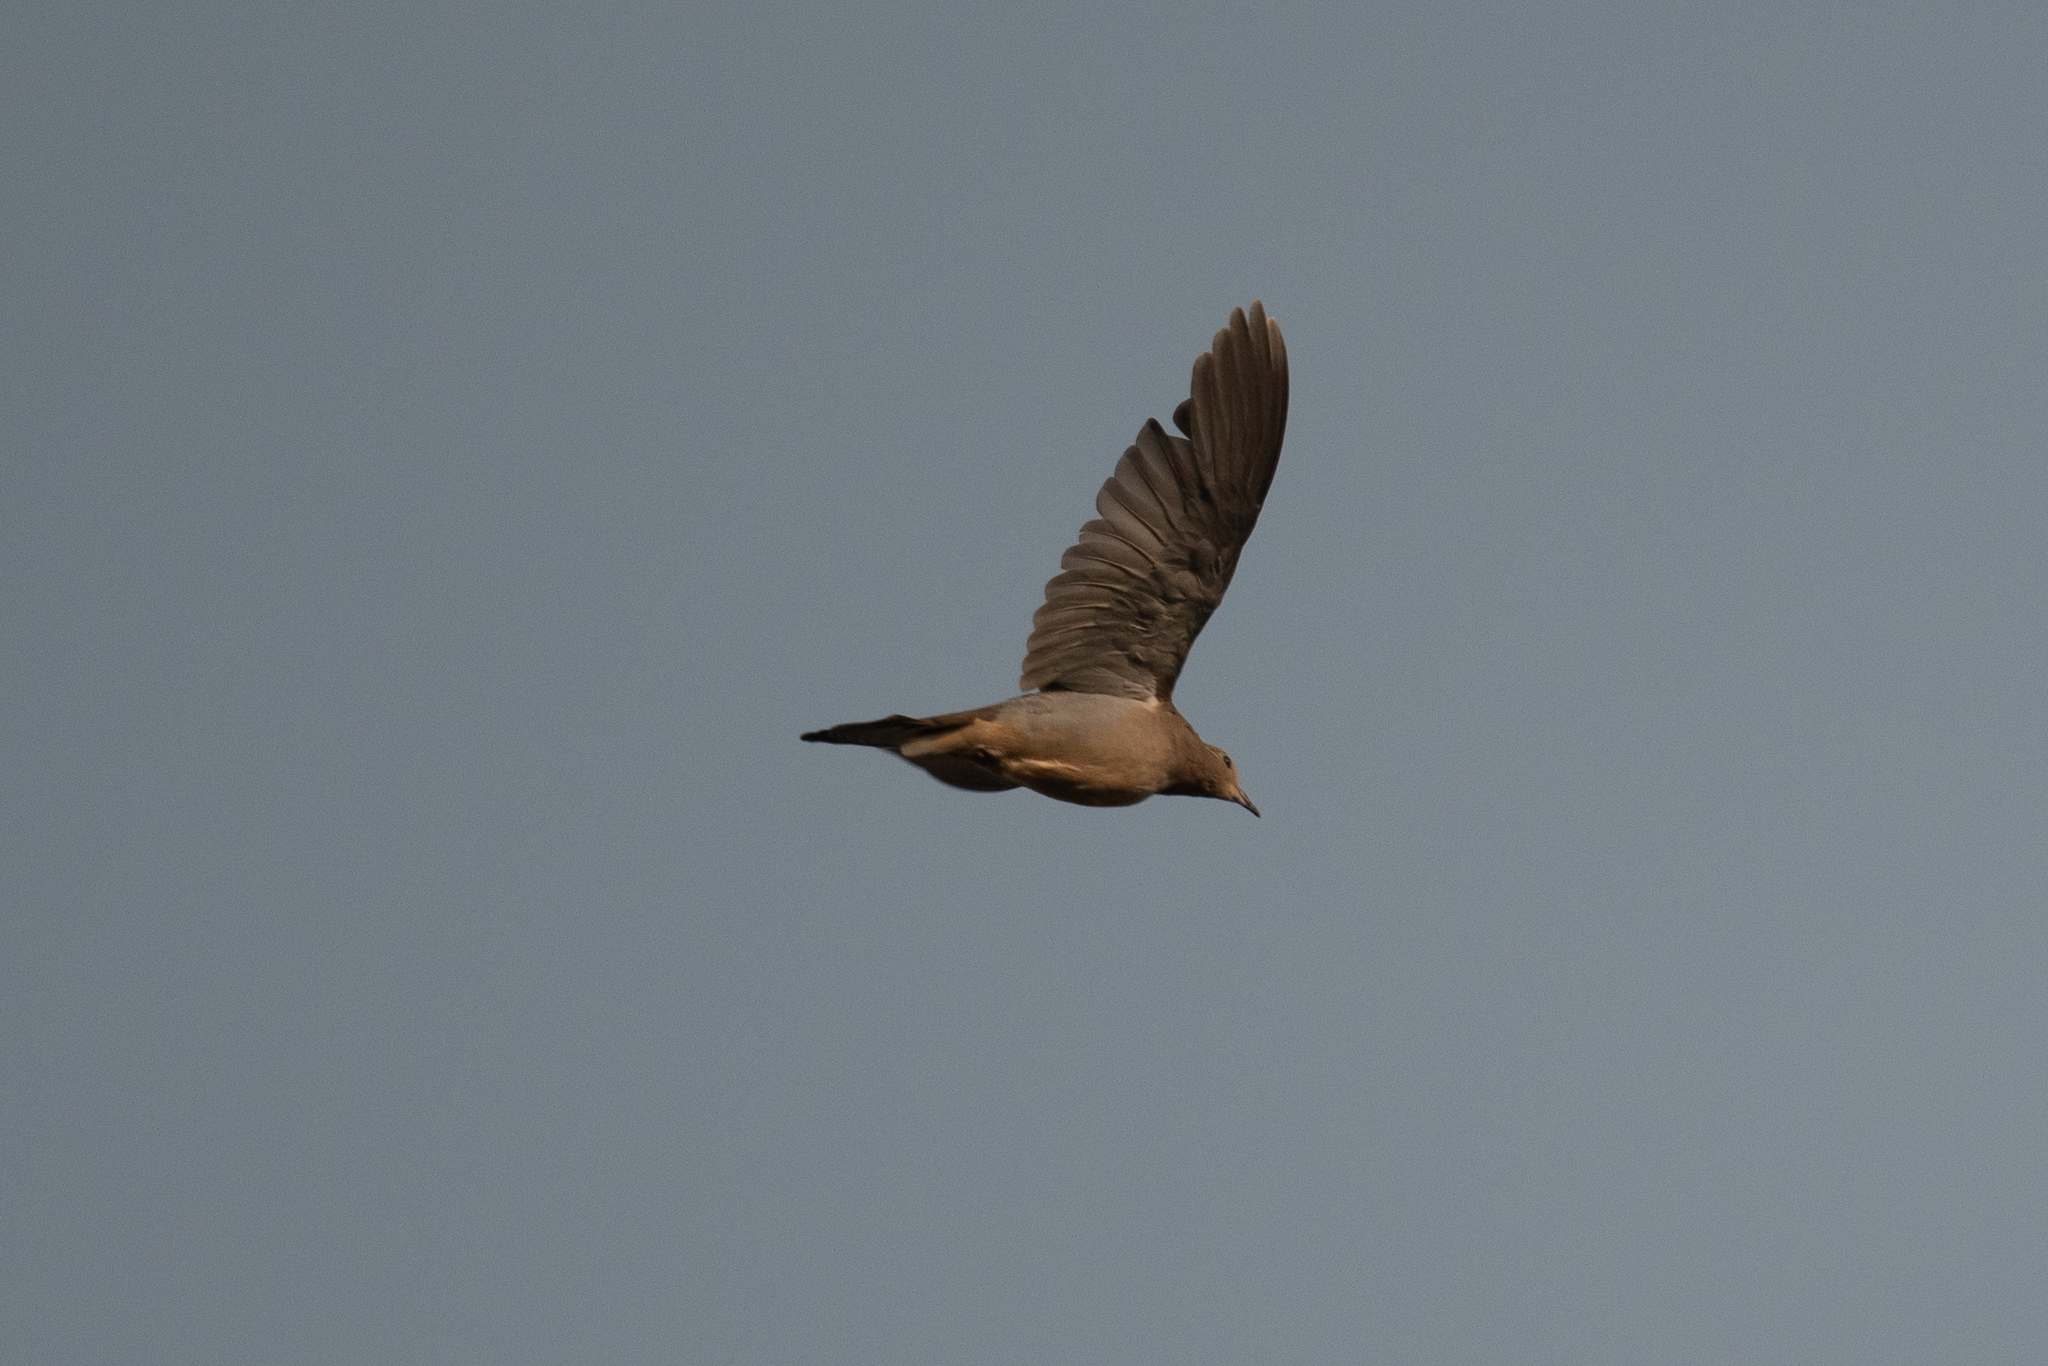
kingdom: Animalia
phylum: Chordata
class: Aves
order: Columbiformes
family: Columbidae
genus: Zenaida
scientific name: Zenaida macroura
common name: Mourning dove
